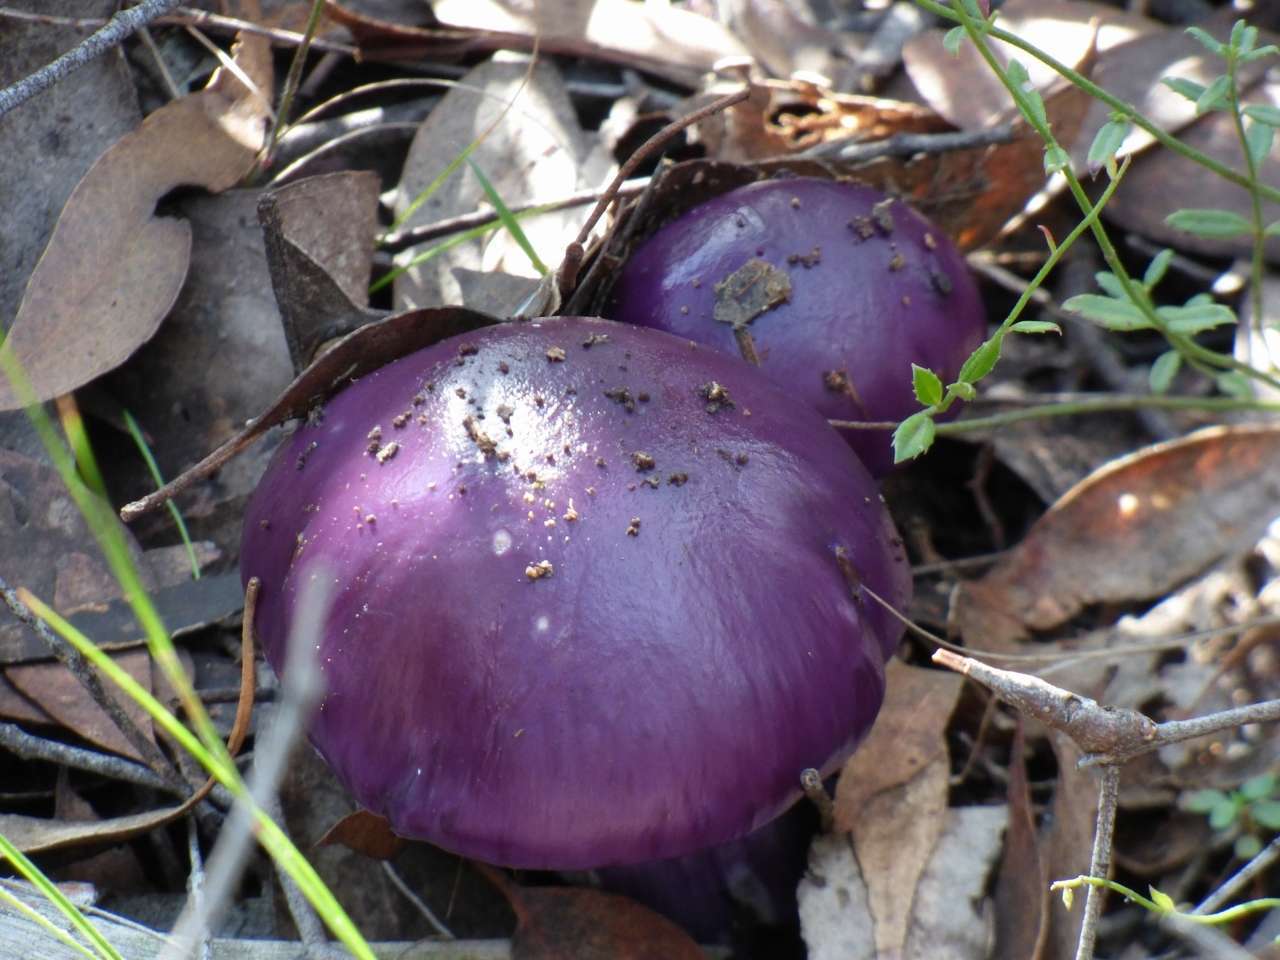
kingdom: Fungi
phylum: Basidiomycota
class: Agaricomycetes
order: Agaricales
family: Cortinariaceae
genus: Cortinarius
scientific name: Cortinarius archeri
